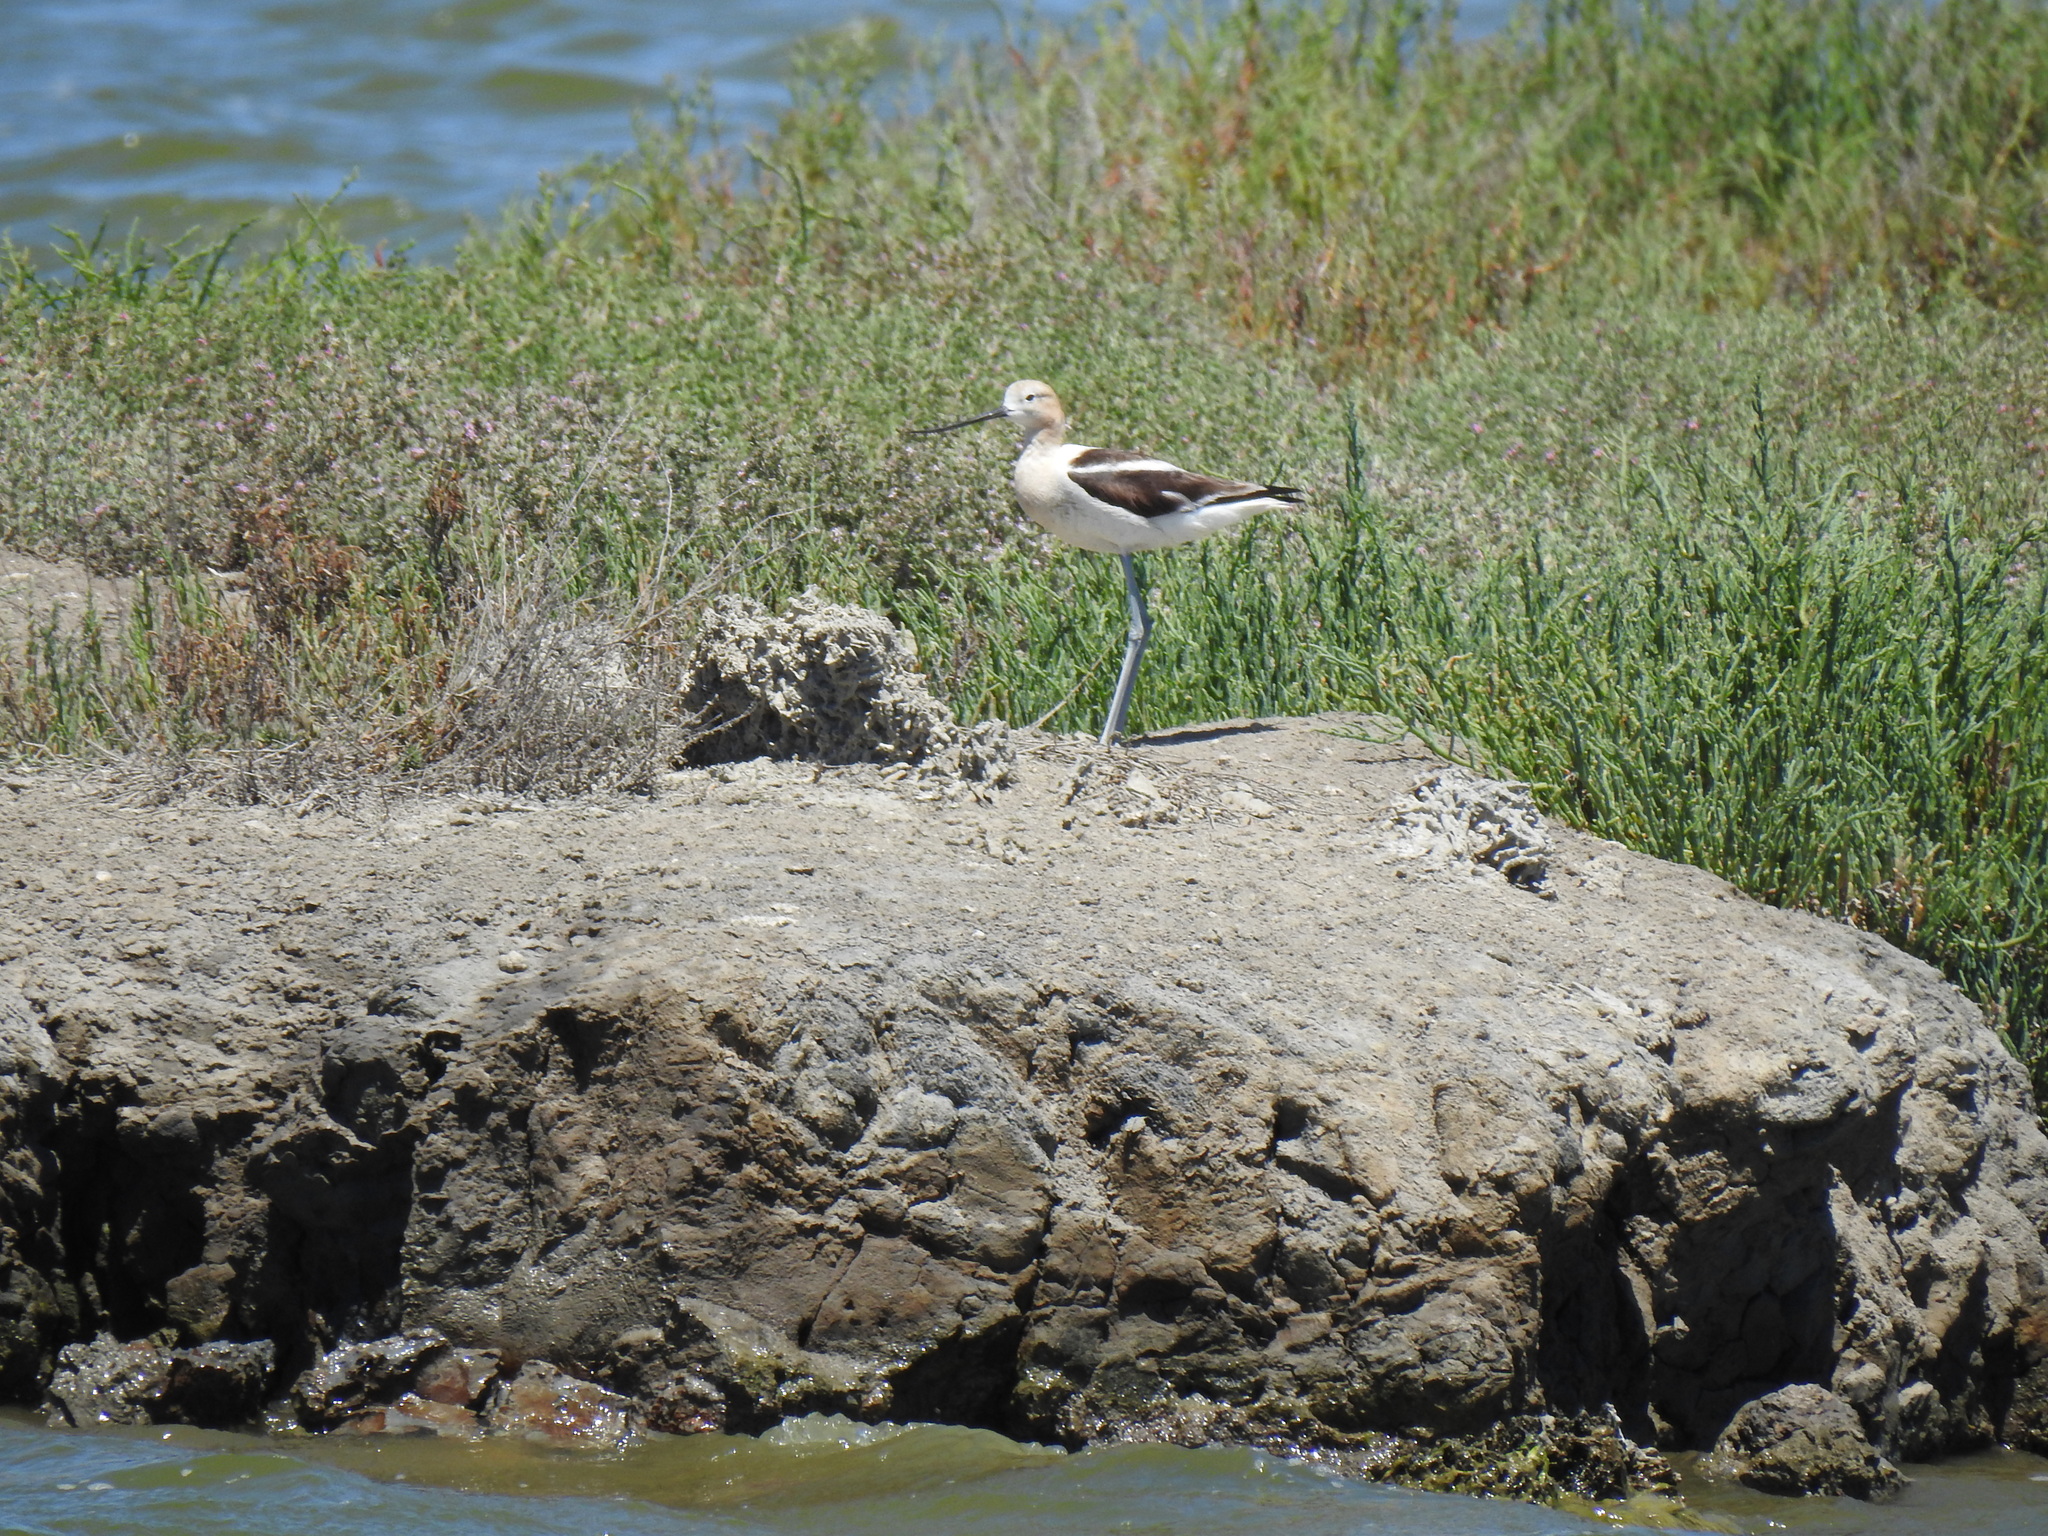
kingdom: Animalia
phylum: Chordata
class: Aves
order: Charadriiformes
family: Recurvirostridae
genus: Recurvirostra
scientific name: Recurvirostra americana
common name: American avocet
